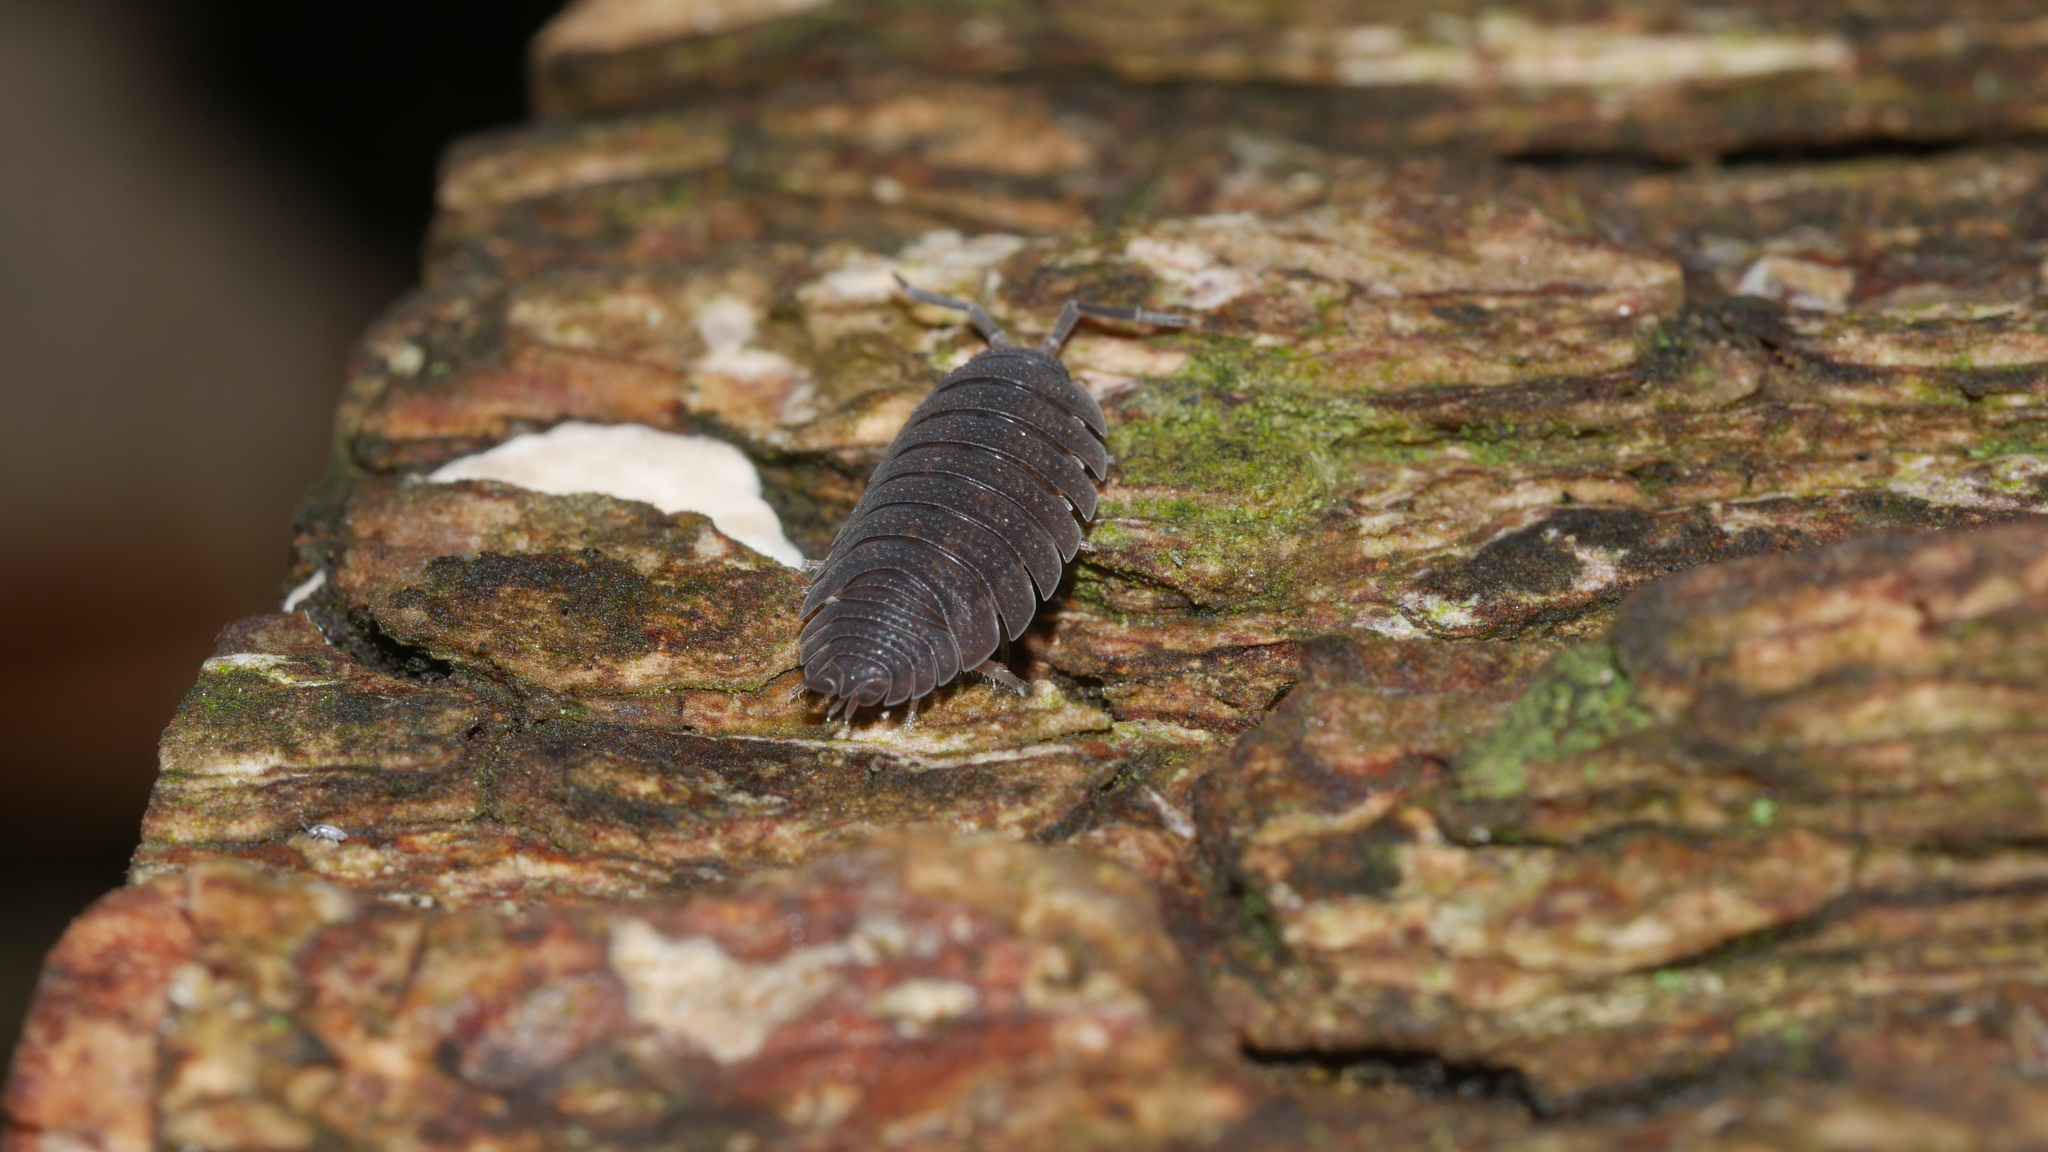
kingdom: Animalia
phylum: Arthropoda
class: Malacostraca
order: Isopoda
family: Porcellionidae
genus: Porcellio
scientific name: Porcellio scaber
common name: Common rough woodlouse
